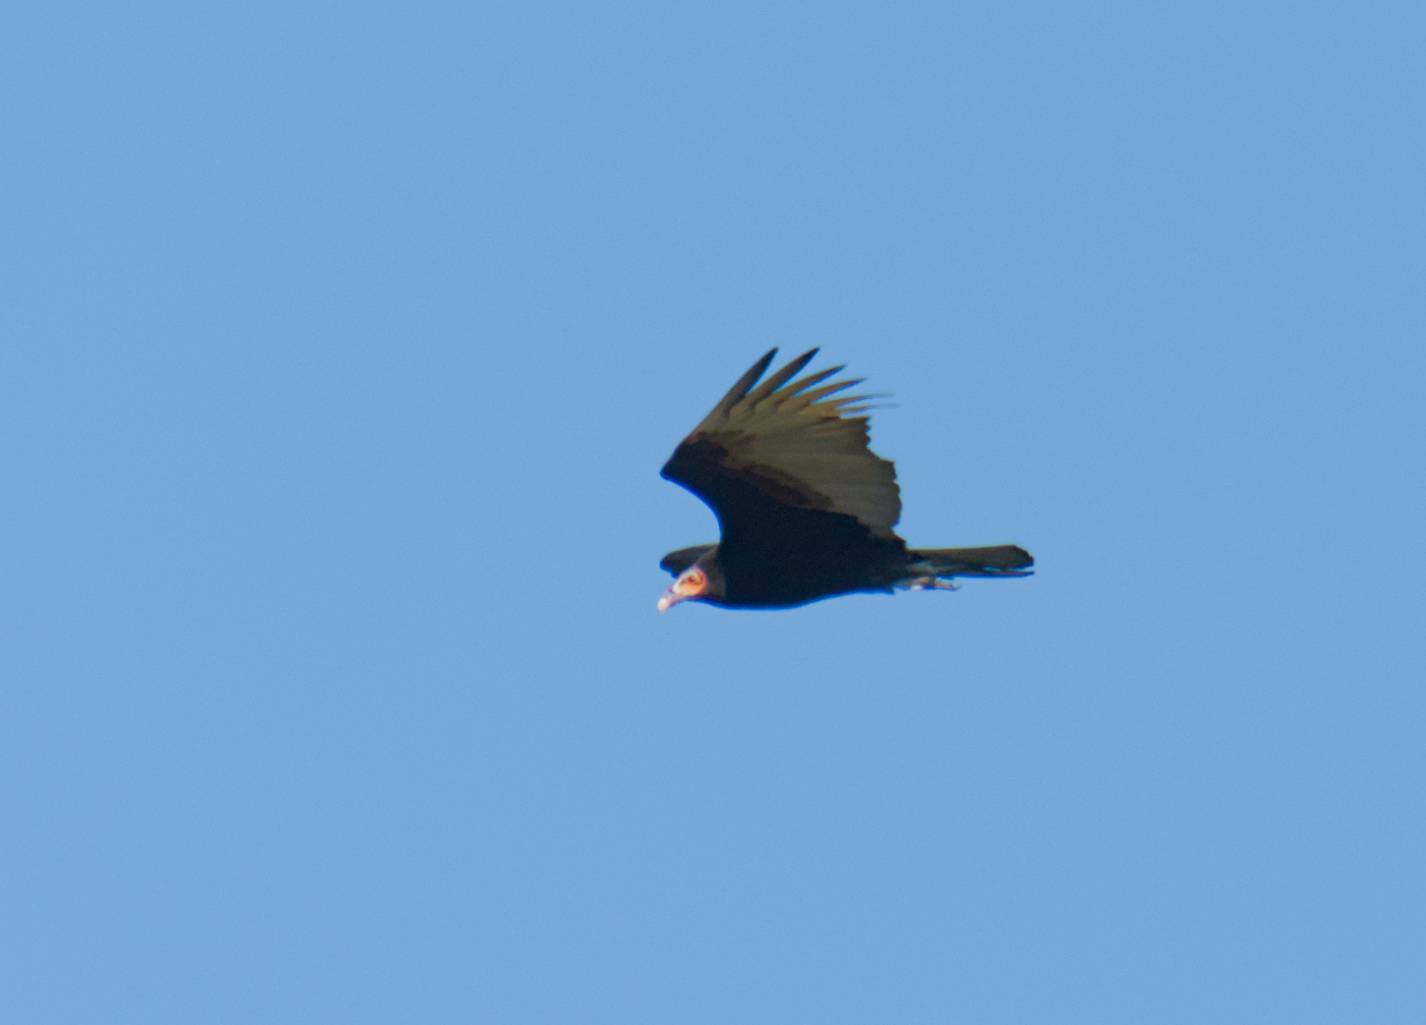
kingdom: Animalia
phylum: Chordata
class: Aves
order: Accipitriformes
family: Cathartidae
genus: Cathartes
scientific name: Cathartes burrovianus
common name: Lesser yellow-headed vulture
